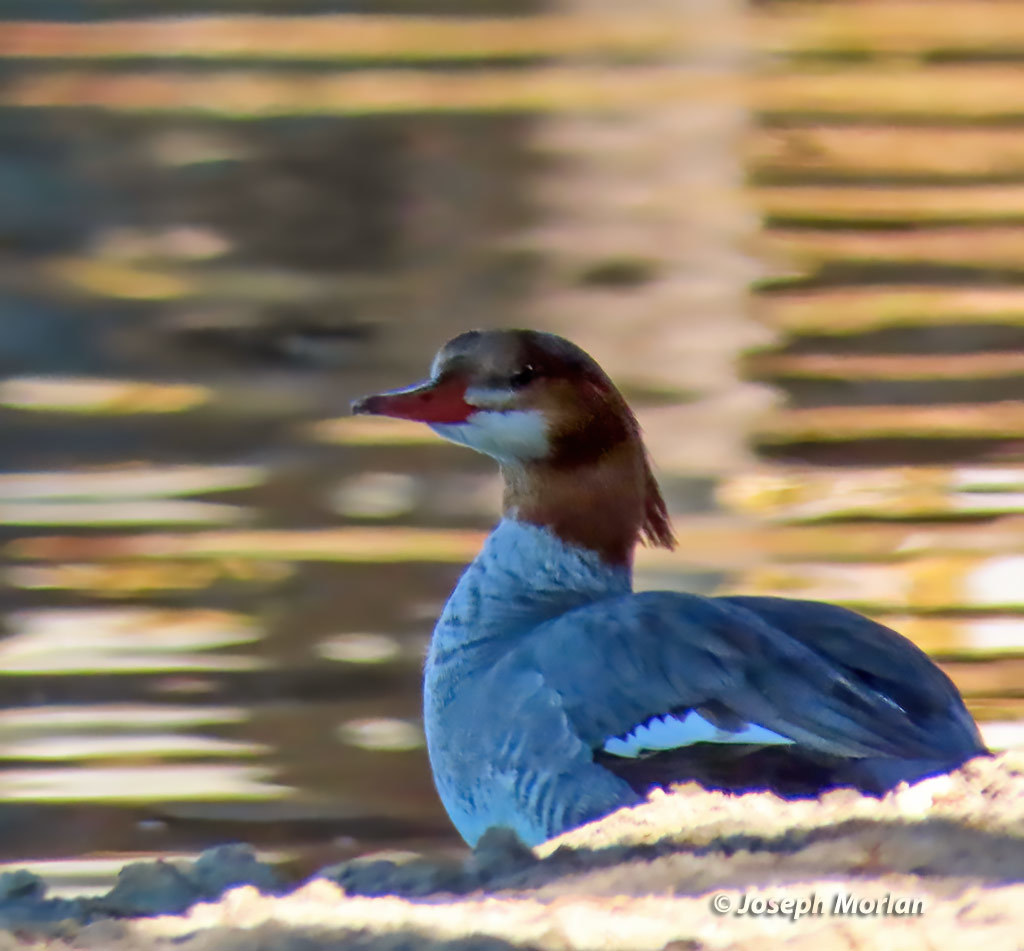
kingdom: Animalia
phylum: Chordata
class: Aves
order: Anseriformes
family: Anatidae
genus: Mergus
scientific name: Mergus merganser
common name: Common merganser
